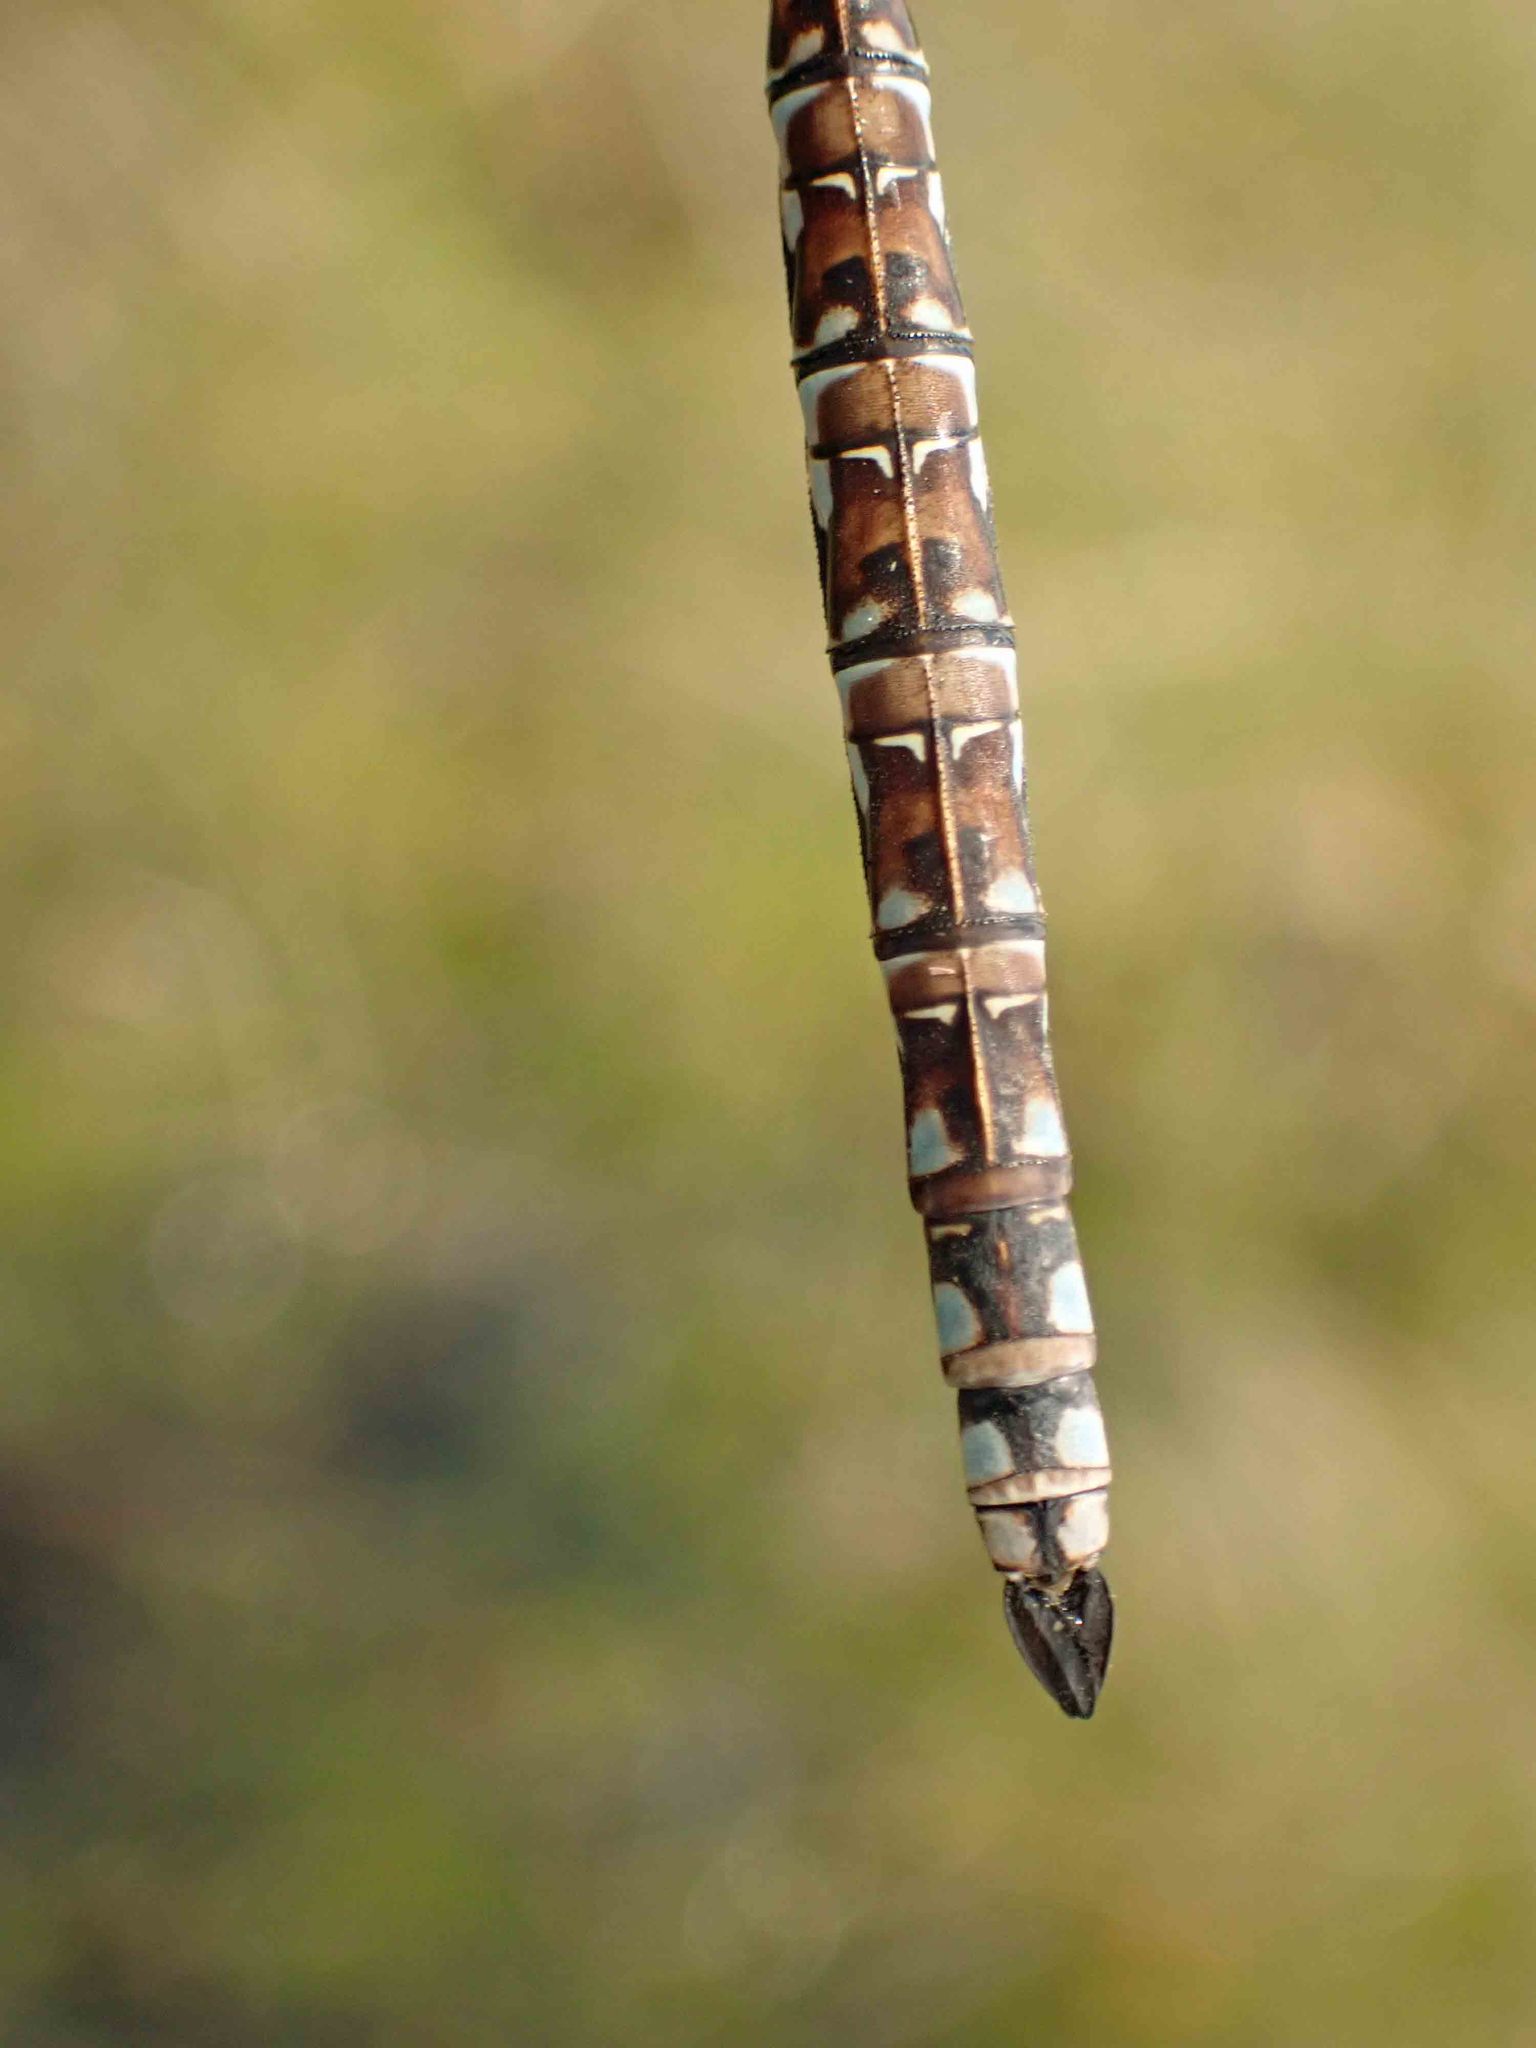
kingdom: Animalia
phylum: Arthropoda
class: Insecta
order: Odonata
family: Aeshnidae
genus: Aeshna
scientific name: Aeshna sitchensis
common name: Zigzag darner
